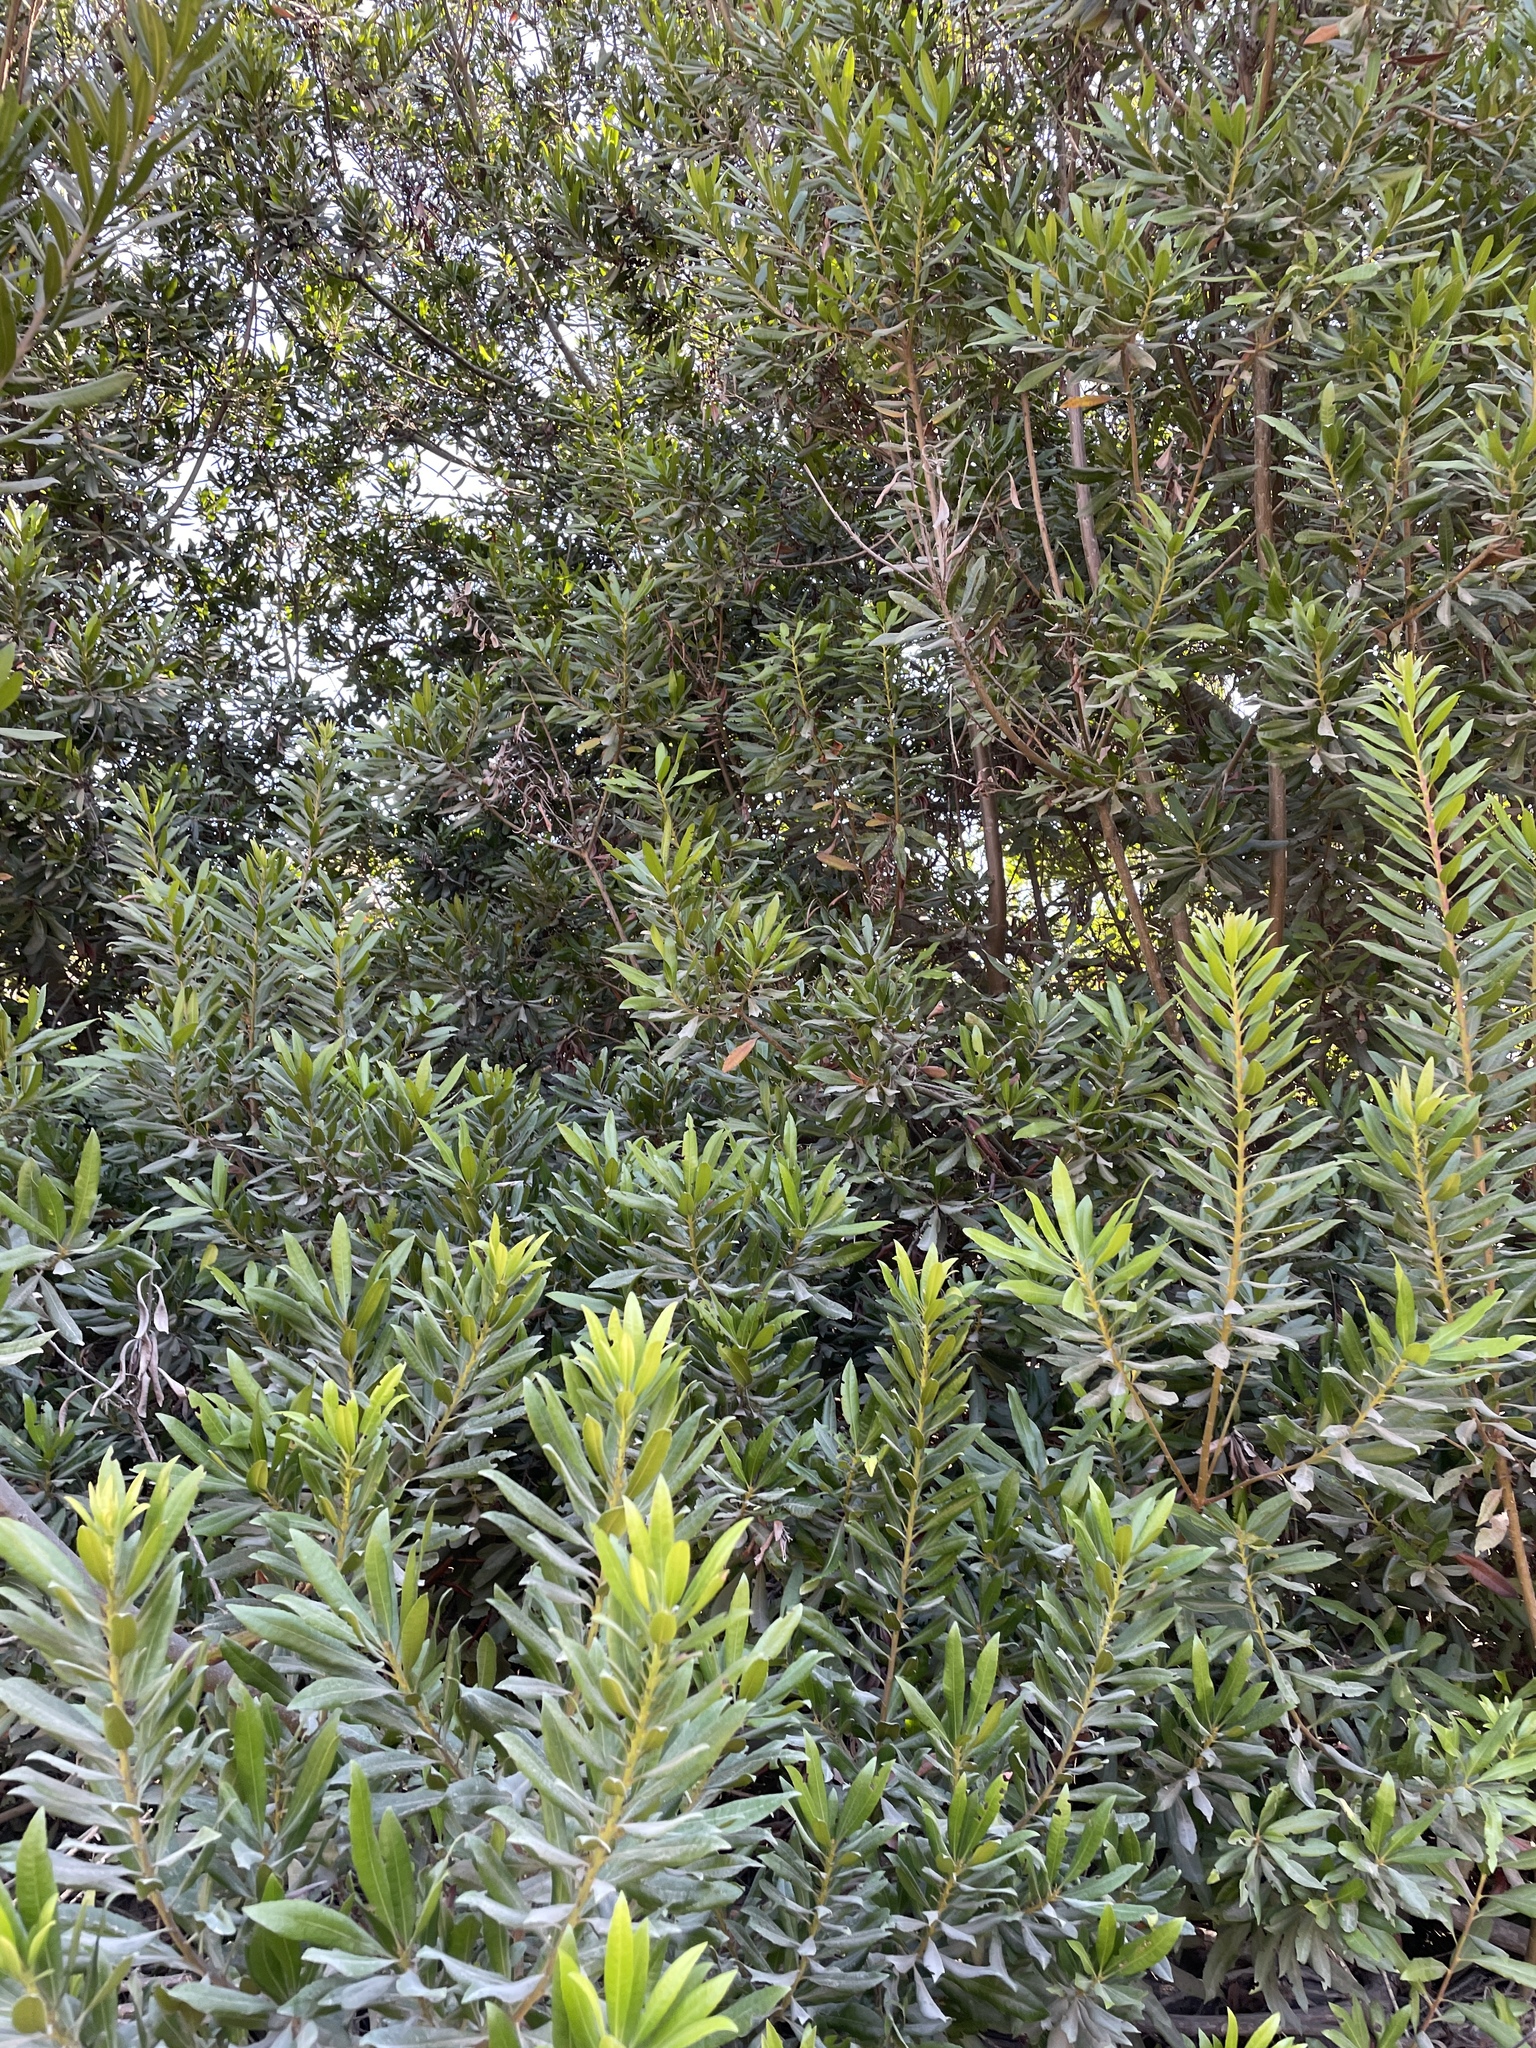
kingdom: Plantae
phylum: Tracheophyta
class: Magnoliopsida
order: Fagales
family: Myricaceae
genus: Morella
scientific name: Morella californica
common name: California wax-myrtle
